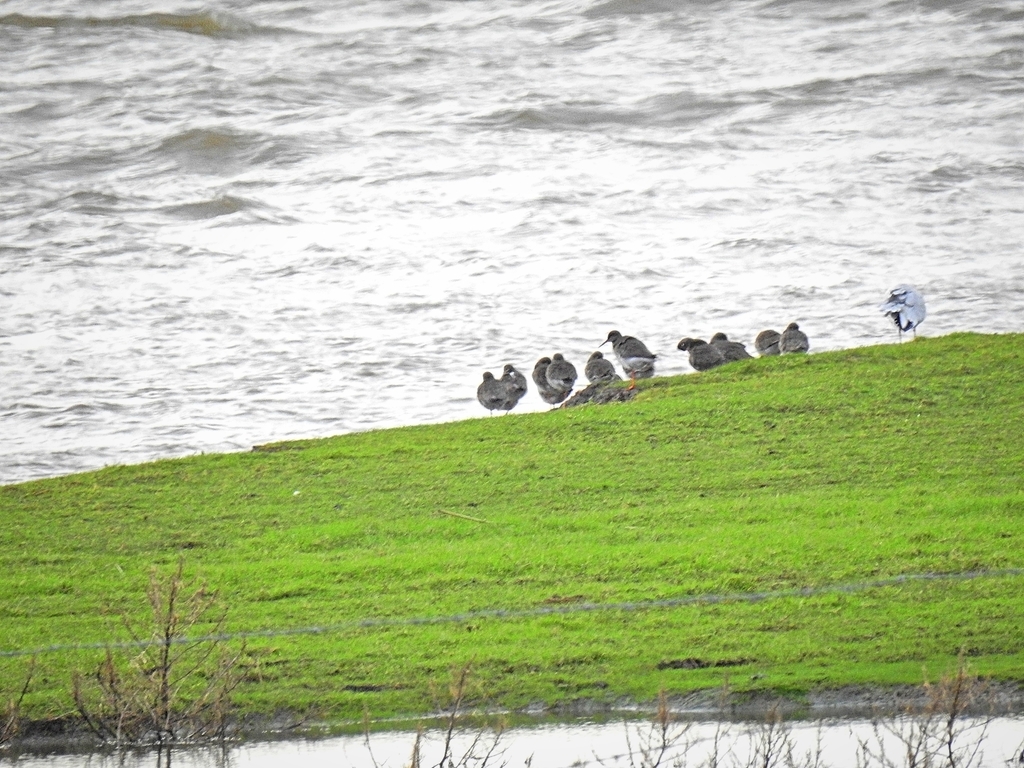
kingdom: Animalia
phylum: Chordata
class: Aves
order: Charadriiformes
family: Scolopacidae
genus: Tringa
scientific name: Tringa totanus
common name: Common redshank
